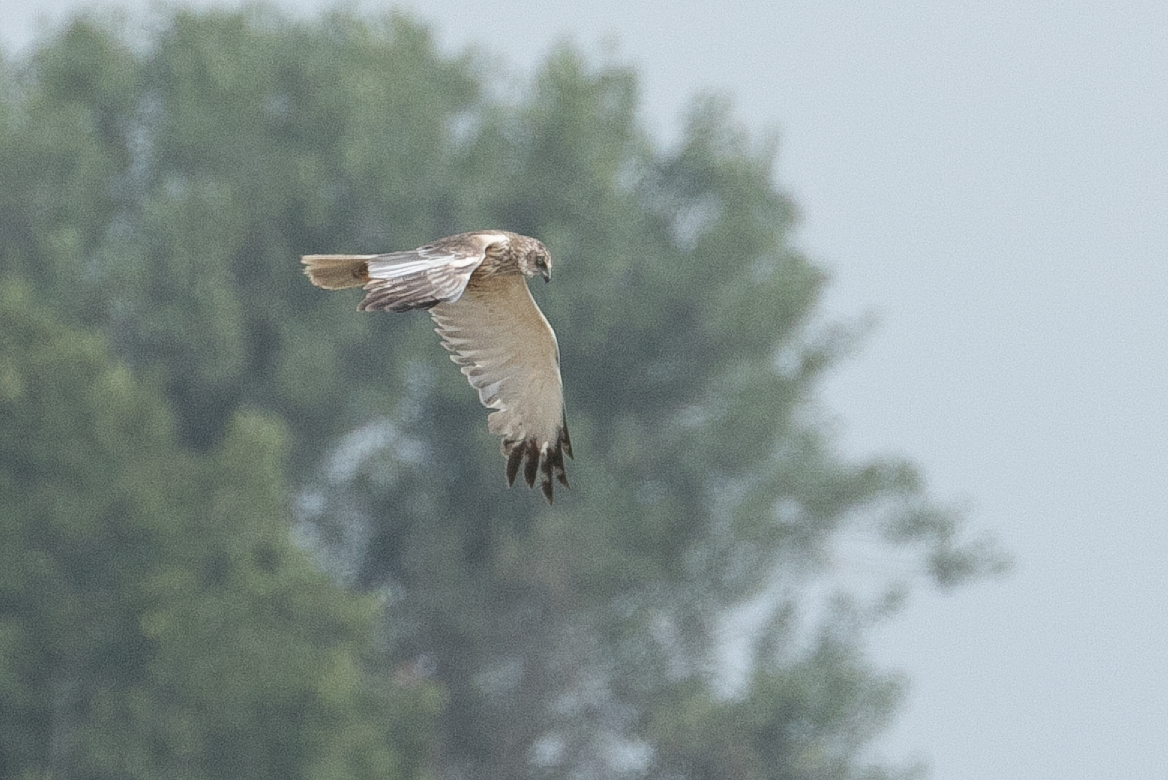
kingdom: Animalia
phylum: Chordata
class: Aves
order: Accipitriformes
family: Accipitridae
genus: Circus
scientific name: Circus aeruginosus
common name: Western marsh harrier
